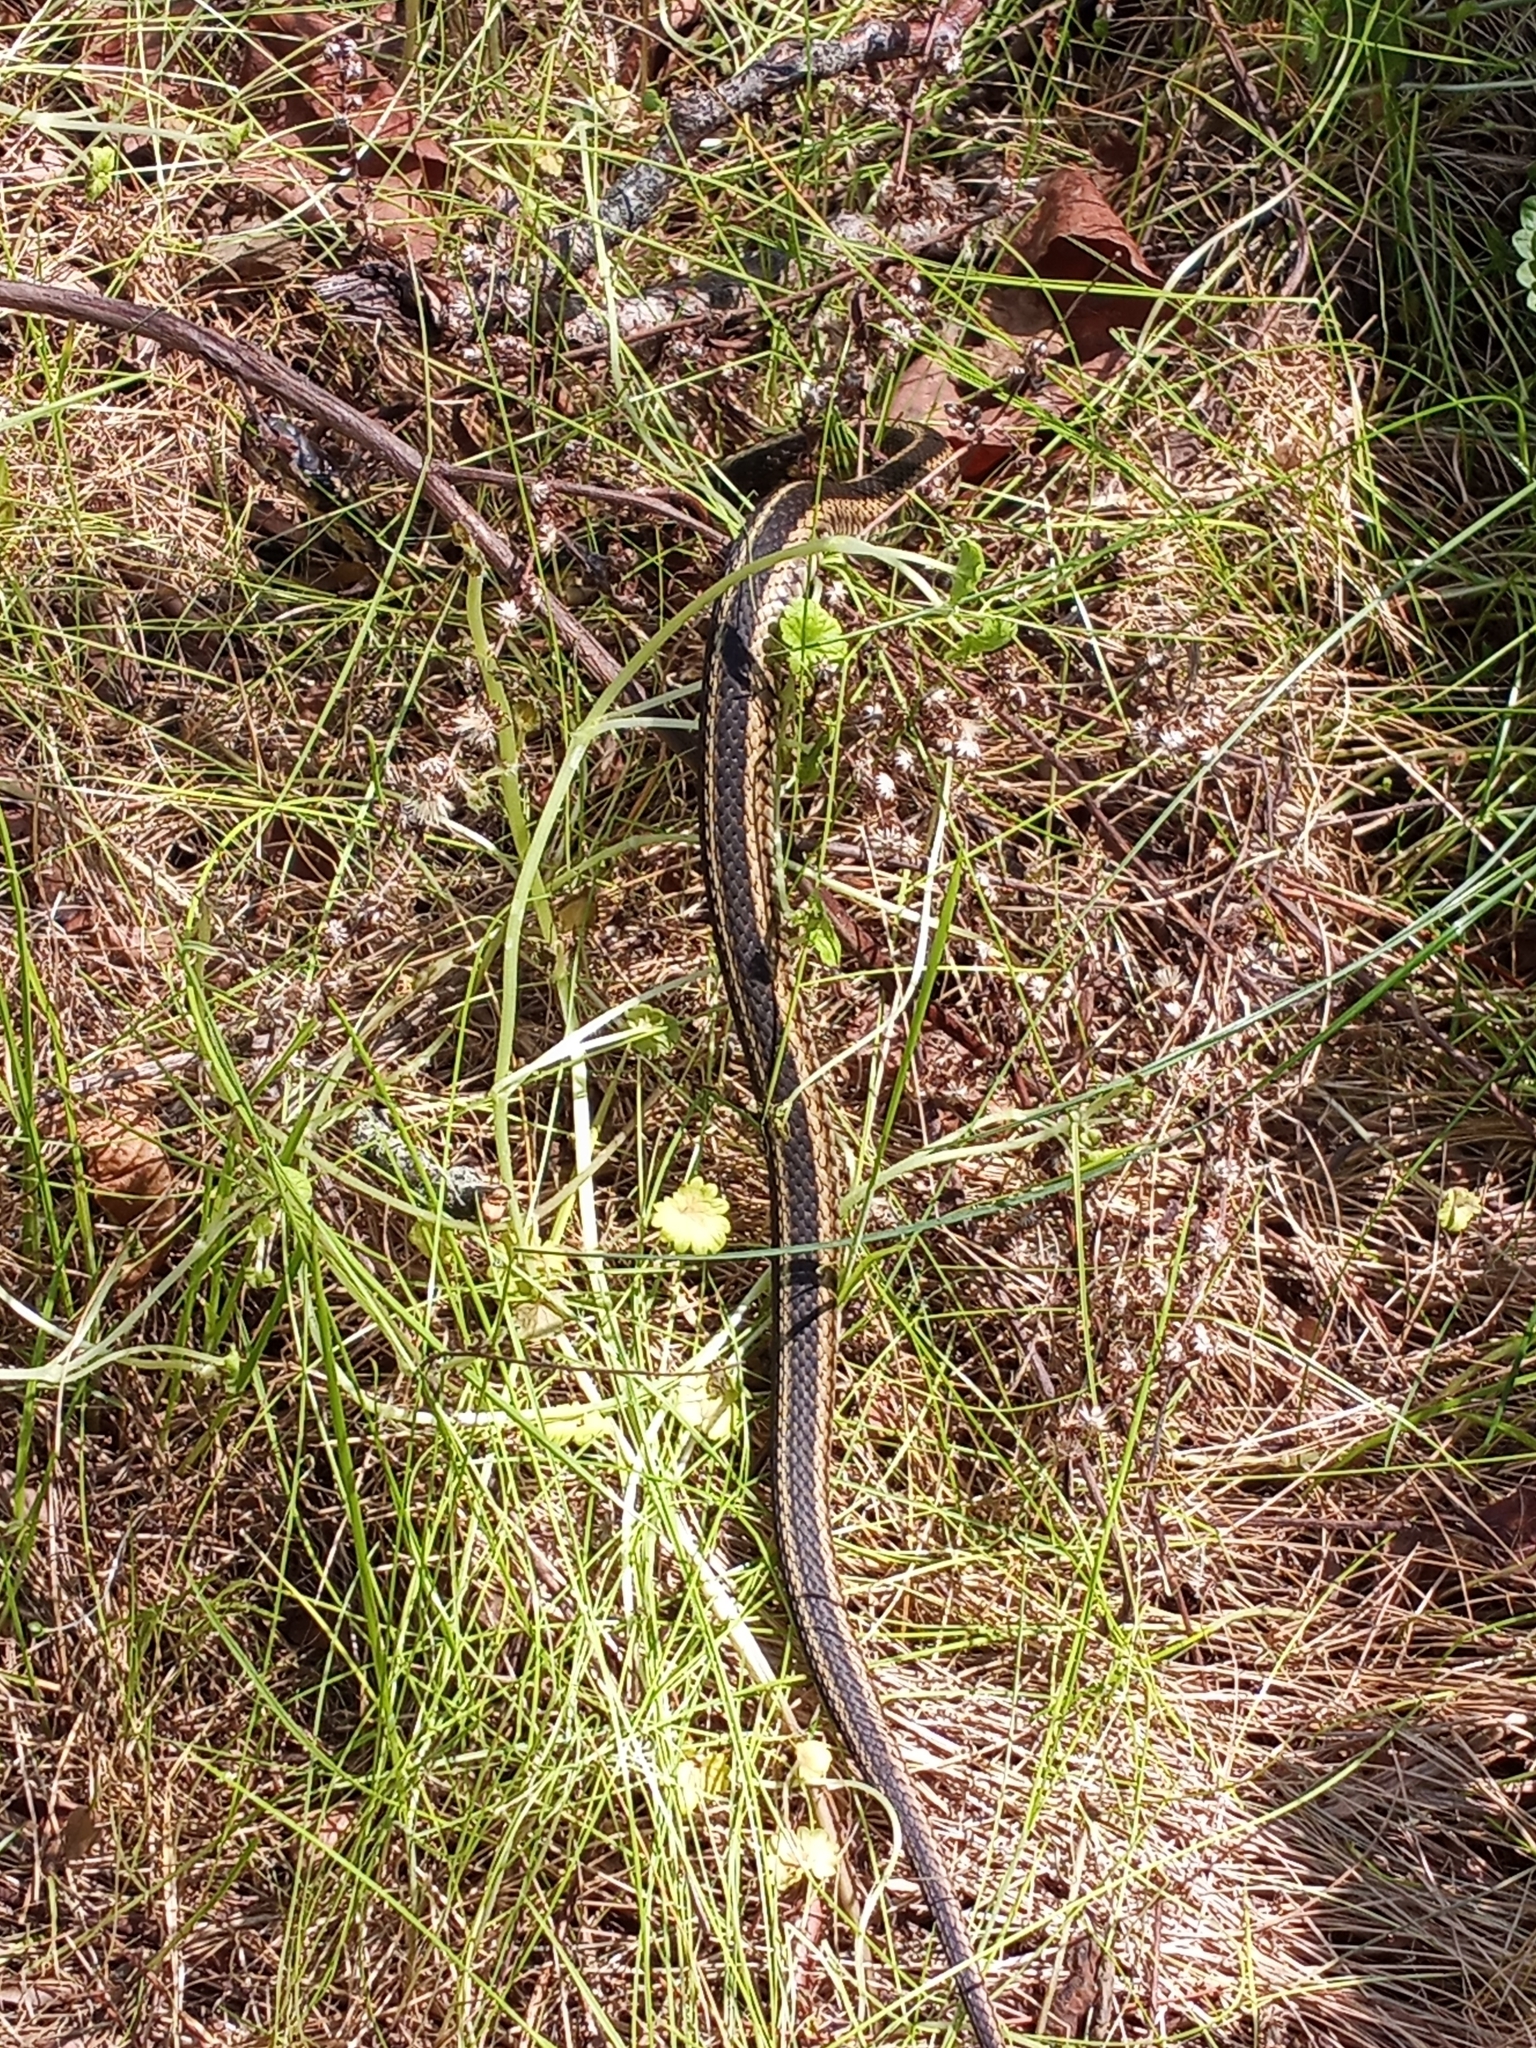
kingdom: Animalia
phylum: Chordata
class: Squamata
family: Colubridae
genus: Thamnophis
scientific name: Thamnophis sirtalis
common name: Common garter snake
